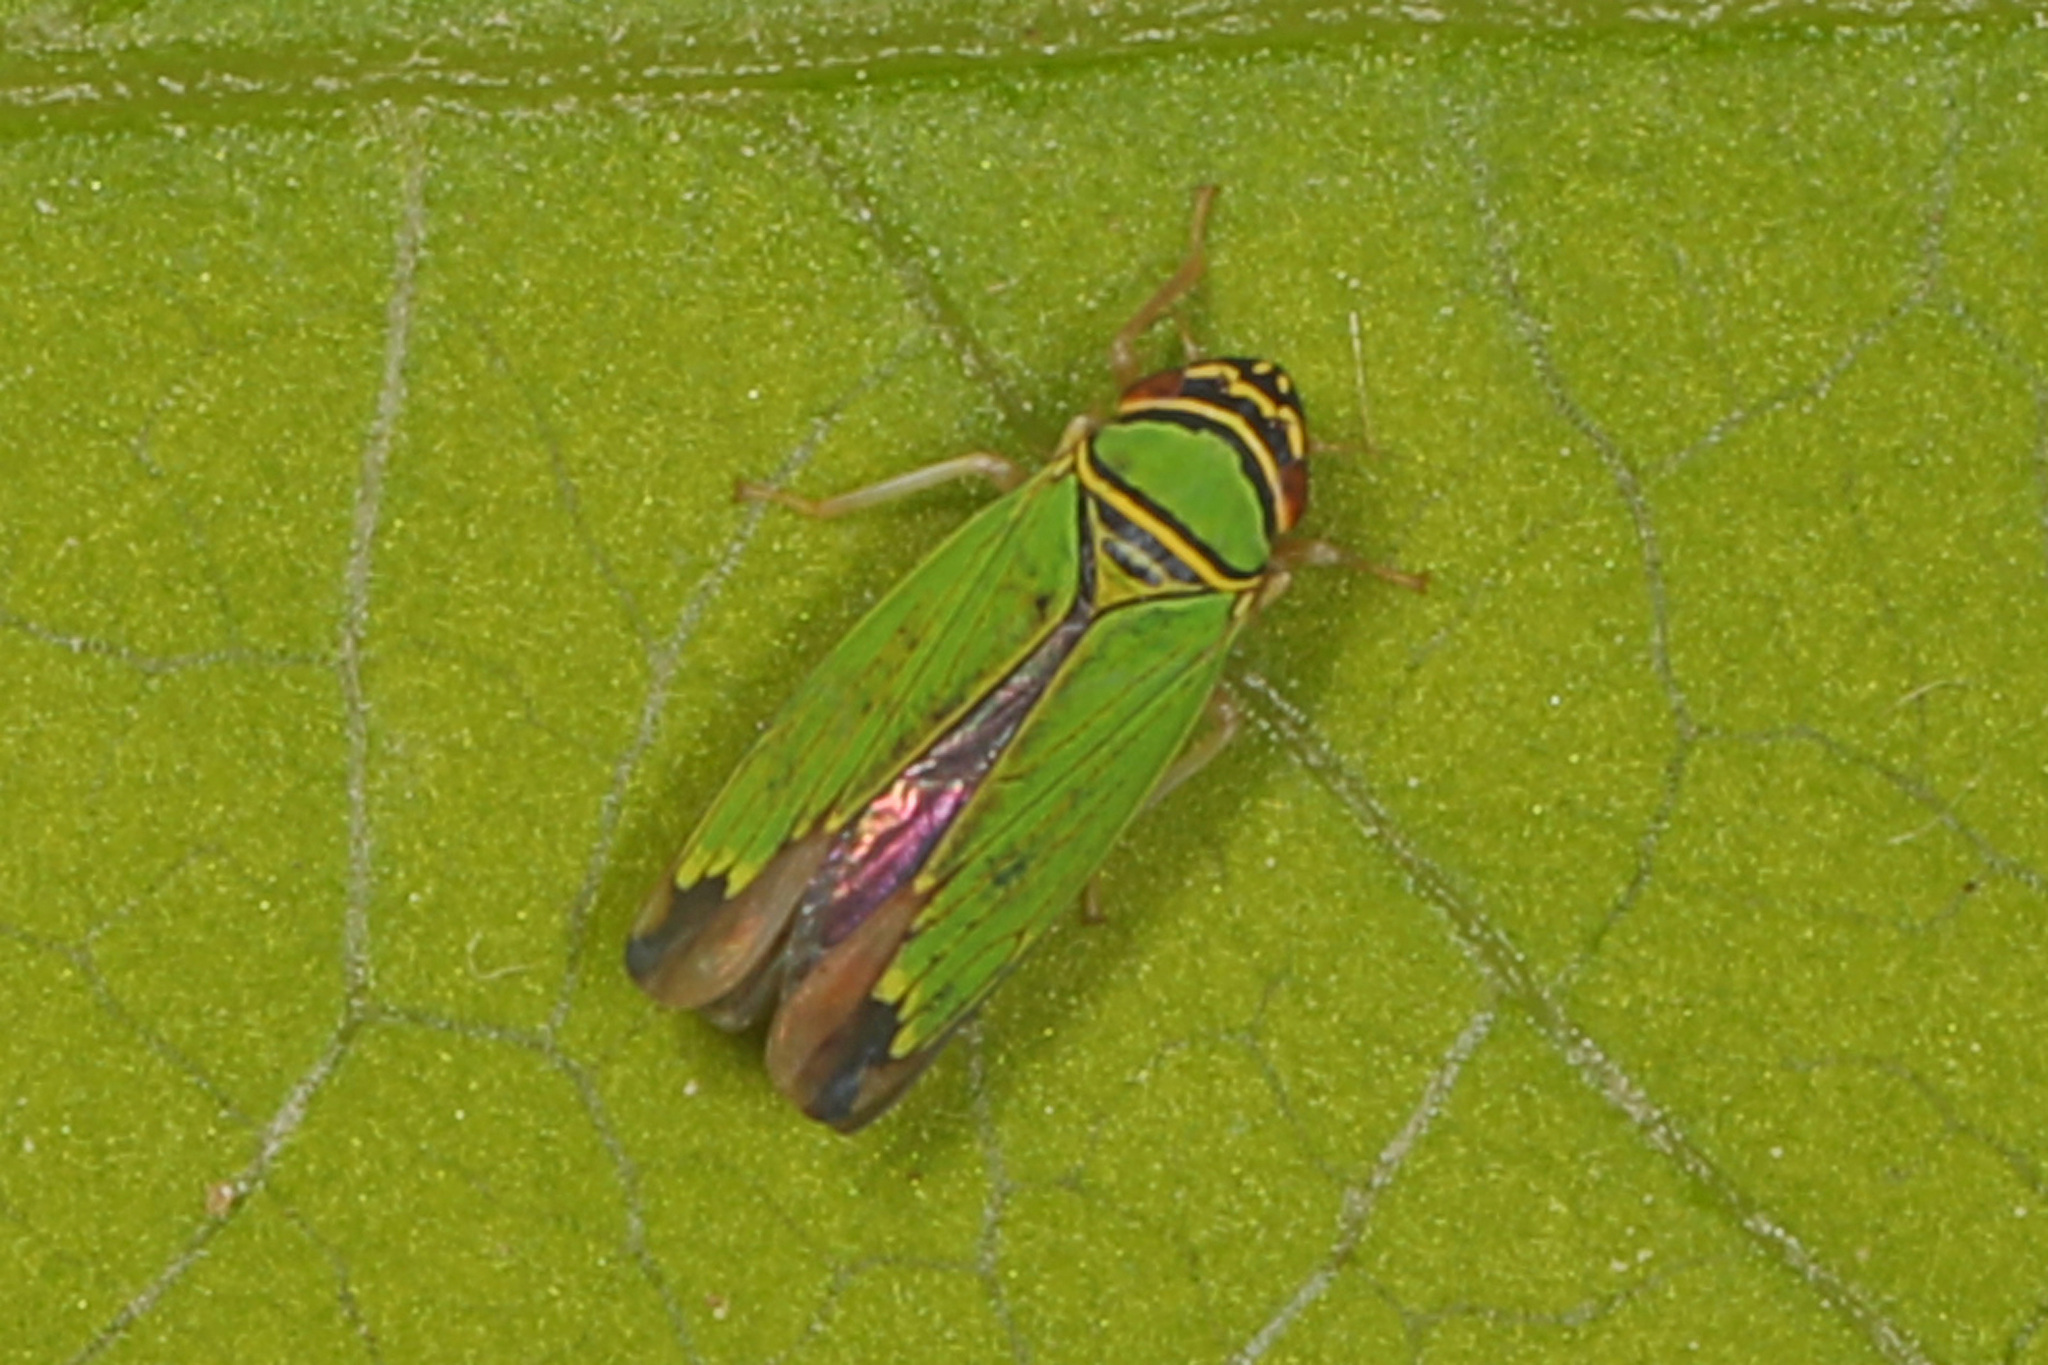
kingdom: Animalia
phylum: Arthropoda
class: Insecta
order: Hemiptera
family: Cicadellidae
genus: Tylozygus
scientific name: Tylozygus geometricus
